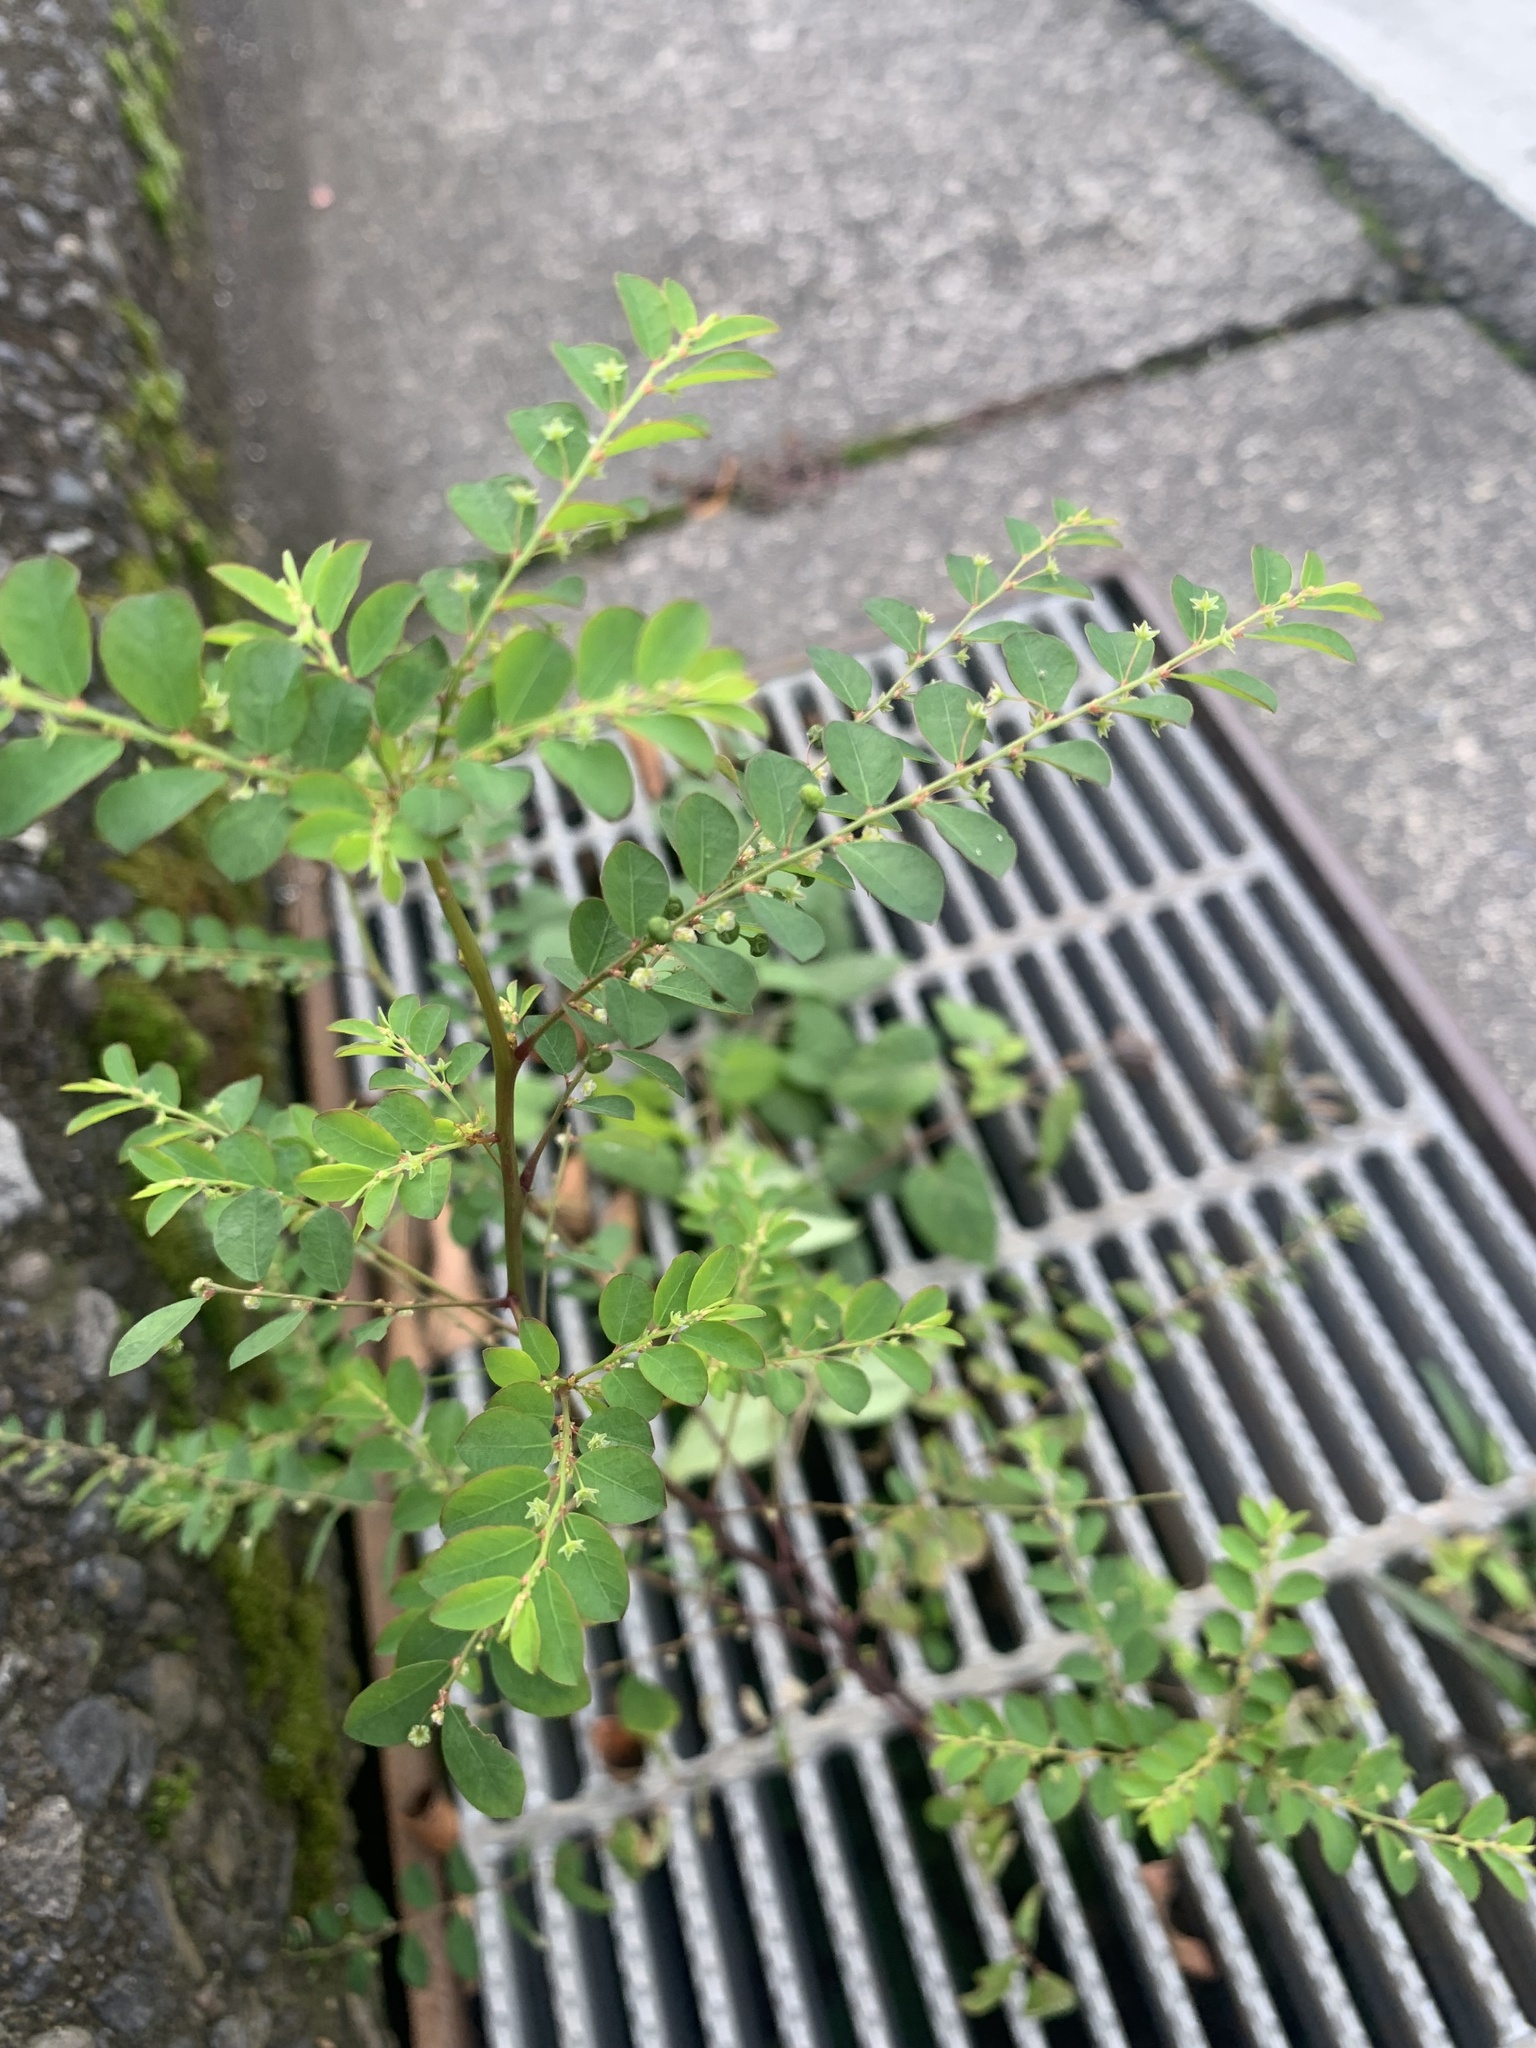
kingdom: Plantae
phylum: Tracheophyta
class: Magnoliopsida
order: Malpighiales
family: Phyllanthaceae
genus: Phyllanthus
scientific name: Phyllanthus tenellus
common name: Mascarene island leaf-flower
